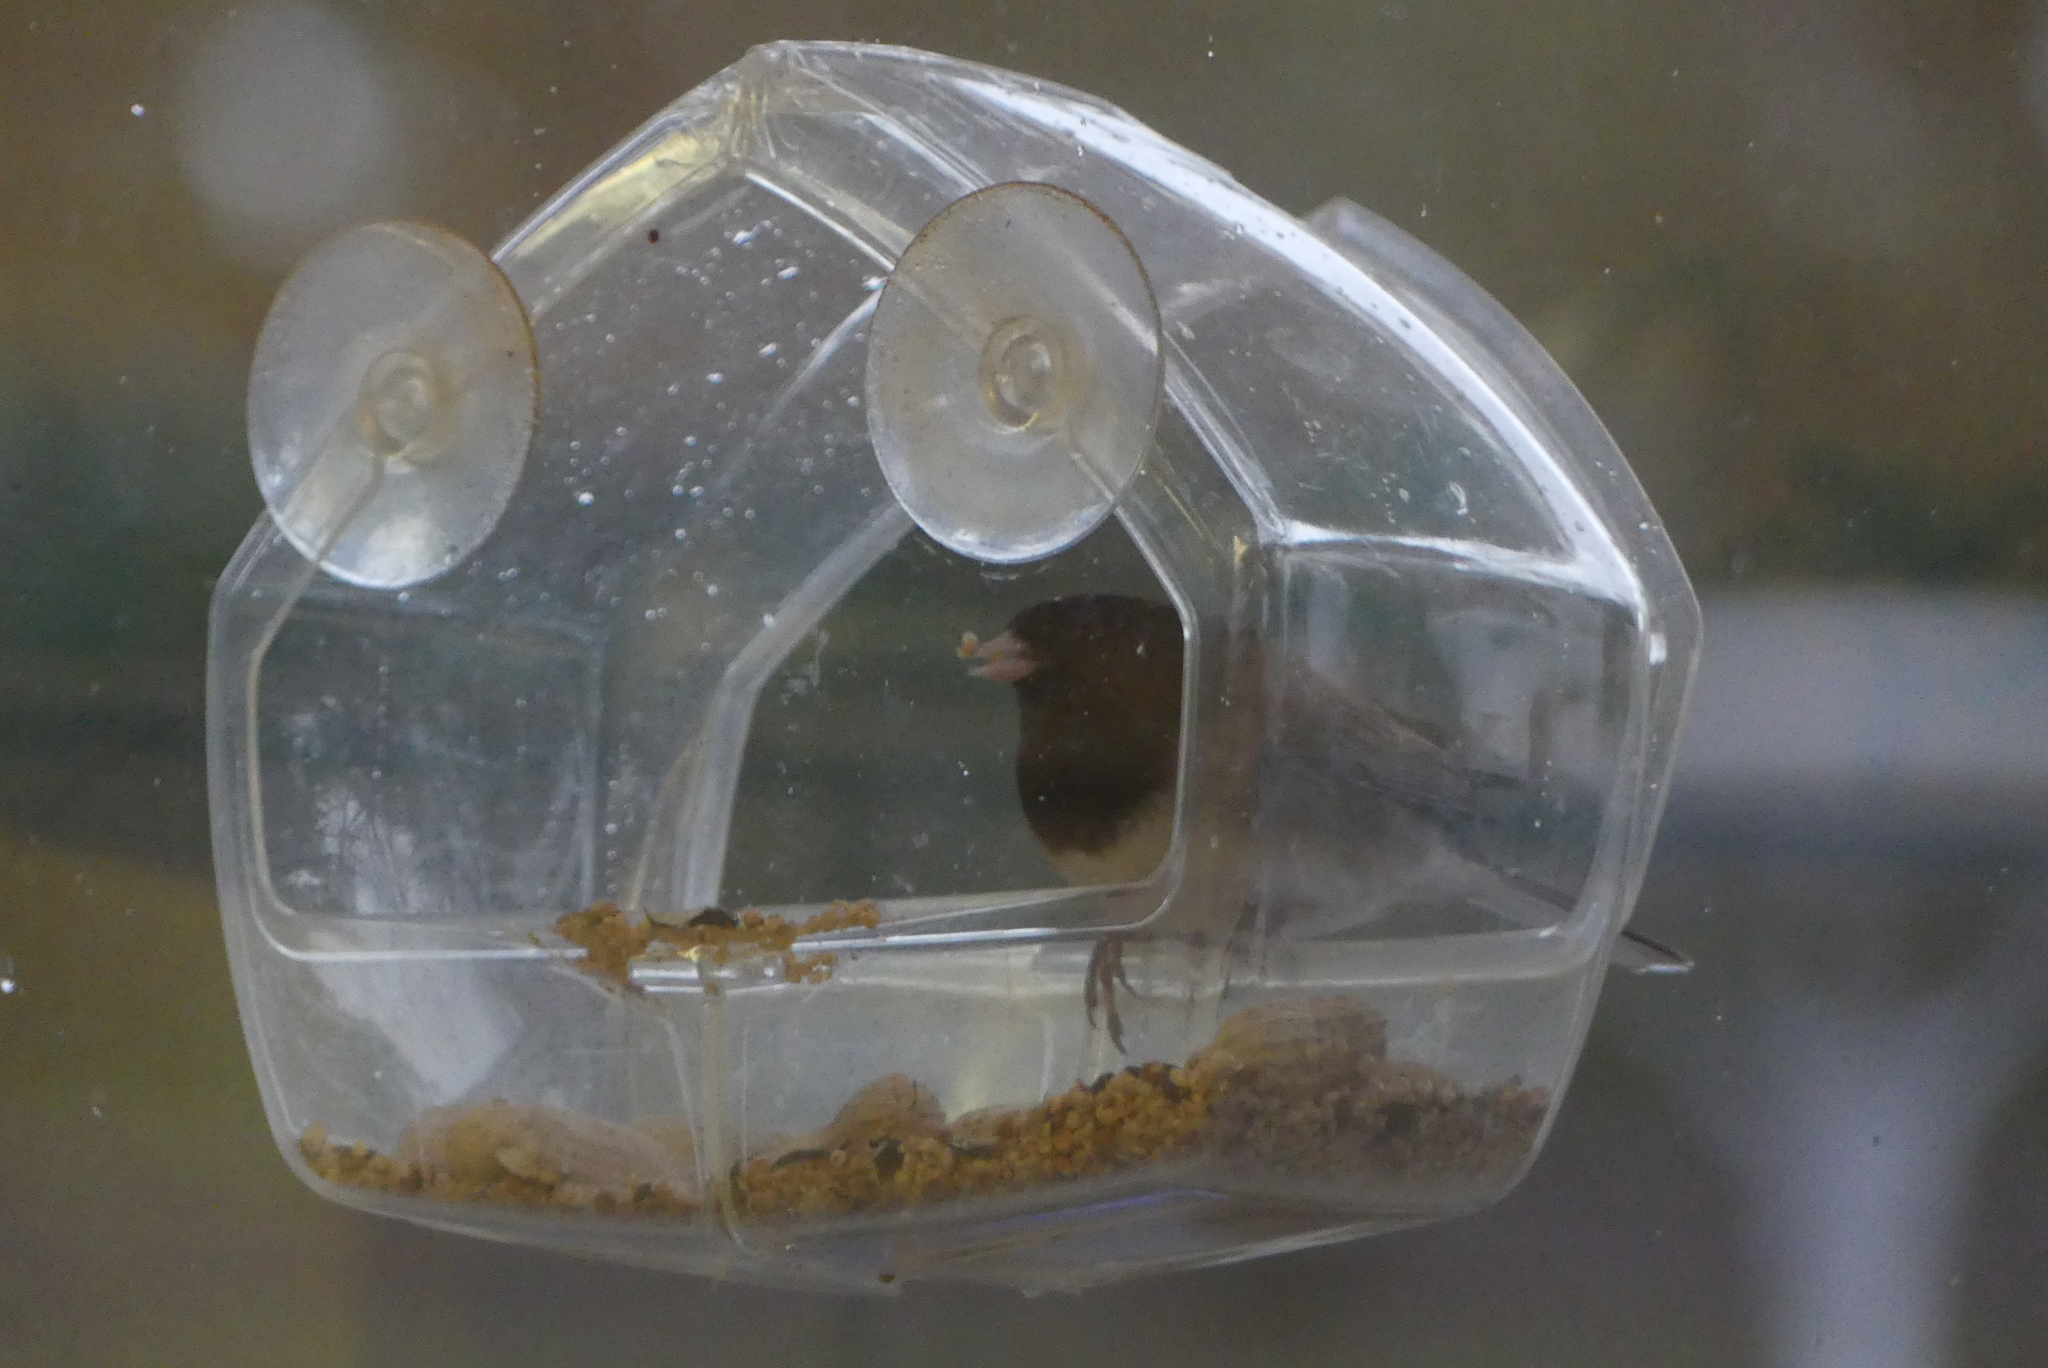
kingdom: Animalia
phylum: Chordata
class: Aves
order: Passeriformes
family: Passerellidae
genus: Junco
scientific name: Junco hyemalis
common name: Dark-eyed junco
